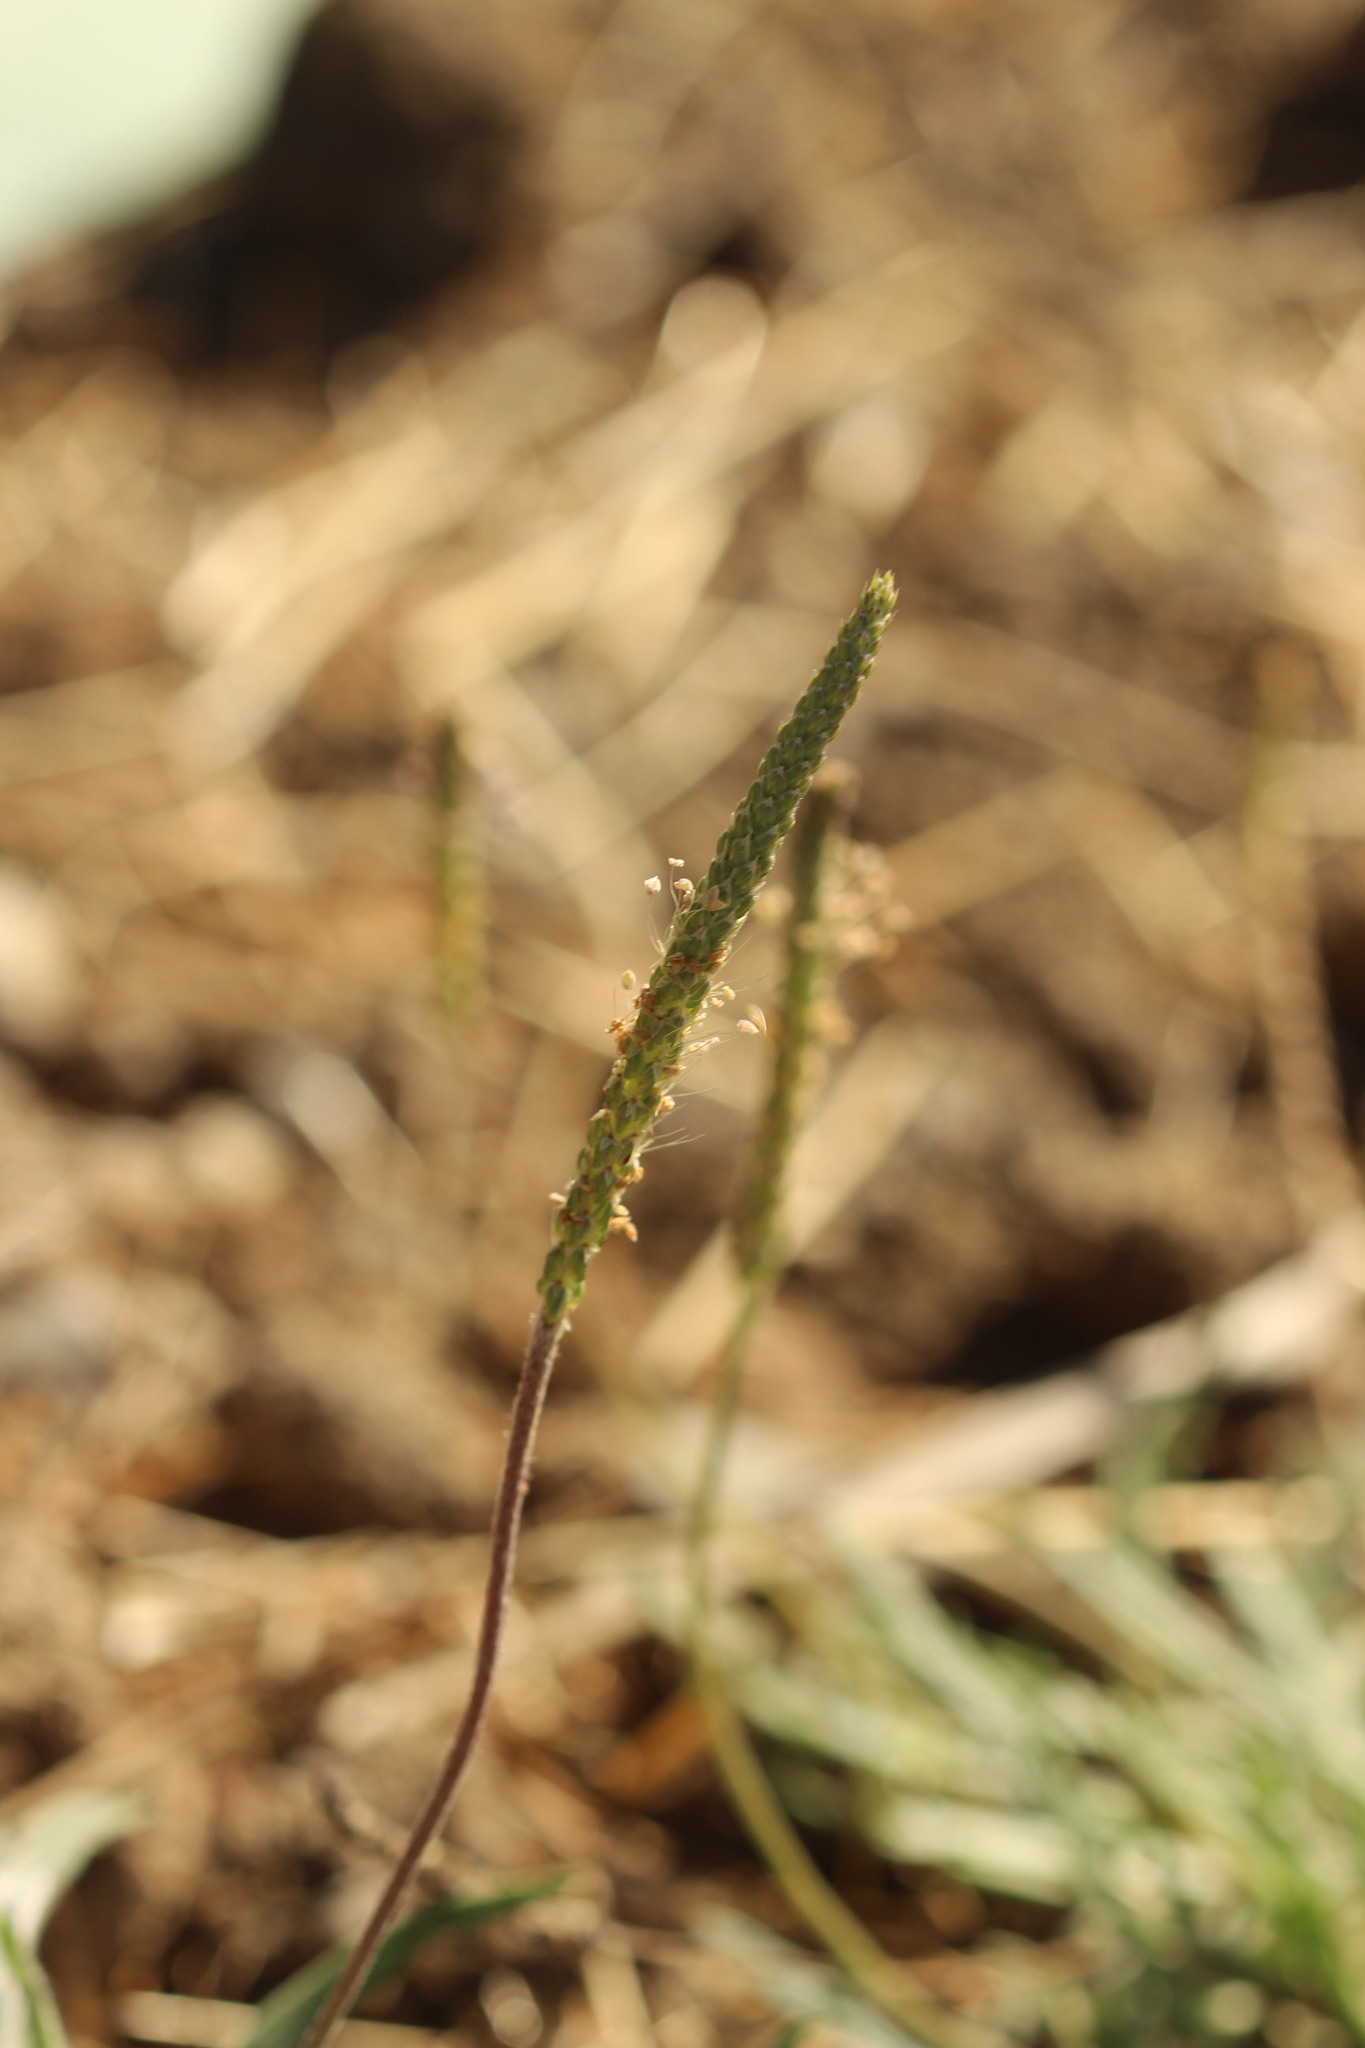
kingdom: Plantae
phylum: Tracheophyta
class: Magnoliopsida
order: Lamiales
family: Plantaginaceae
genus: Plantago
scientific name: Plantago coronopus
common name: Buck's-horn plantain
